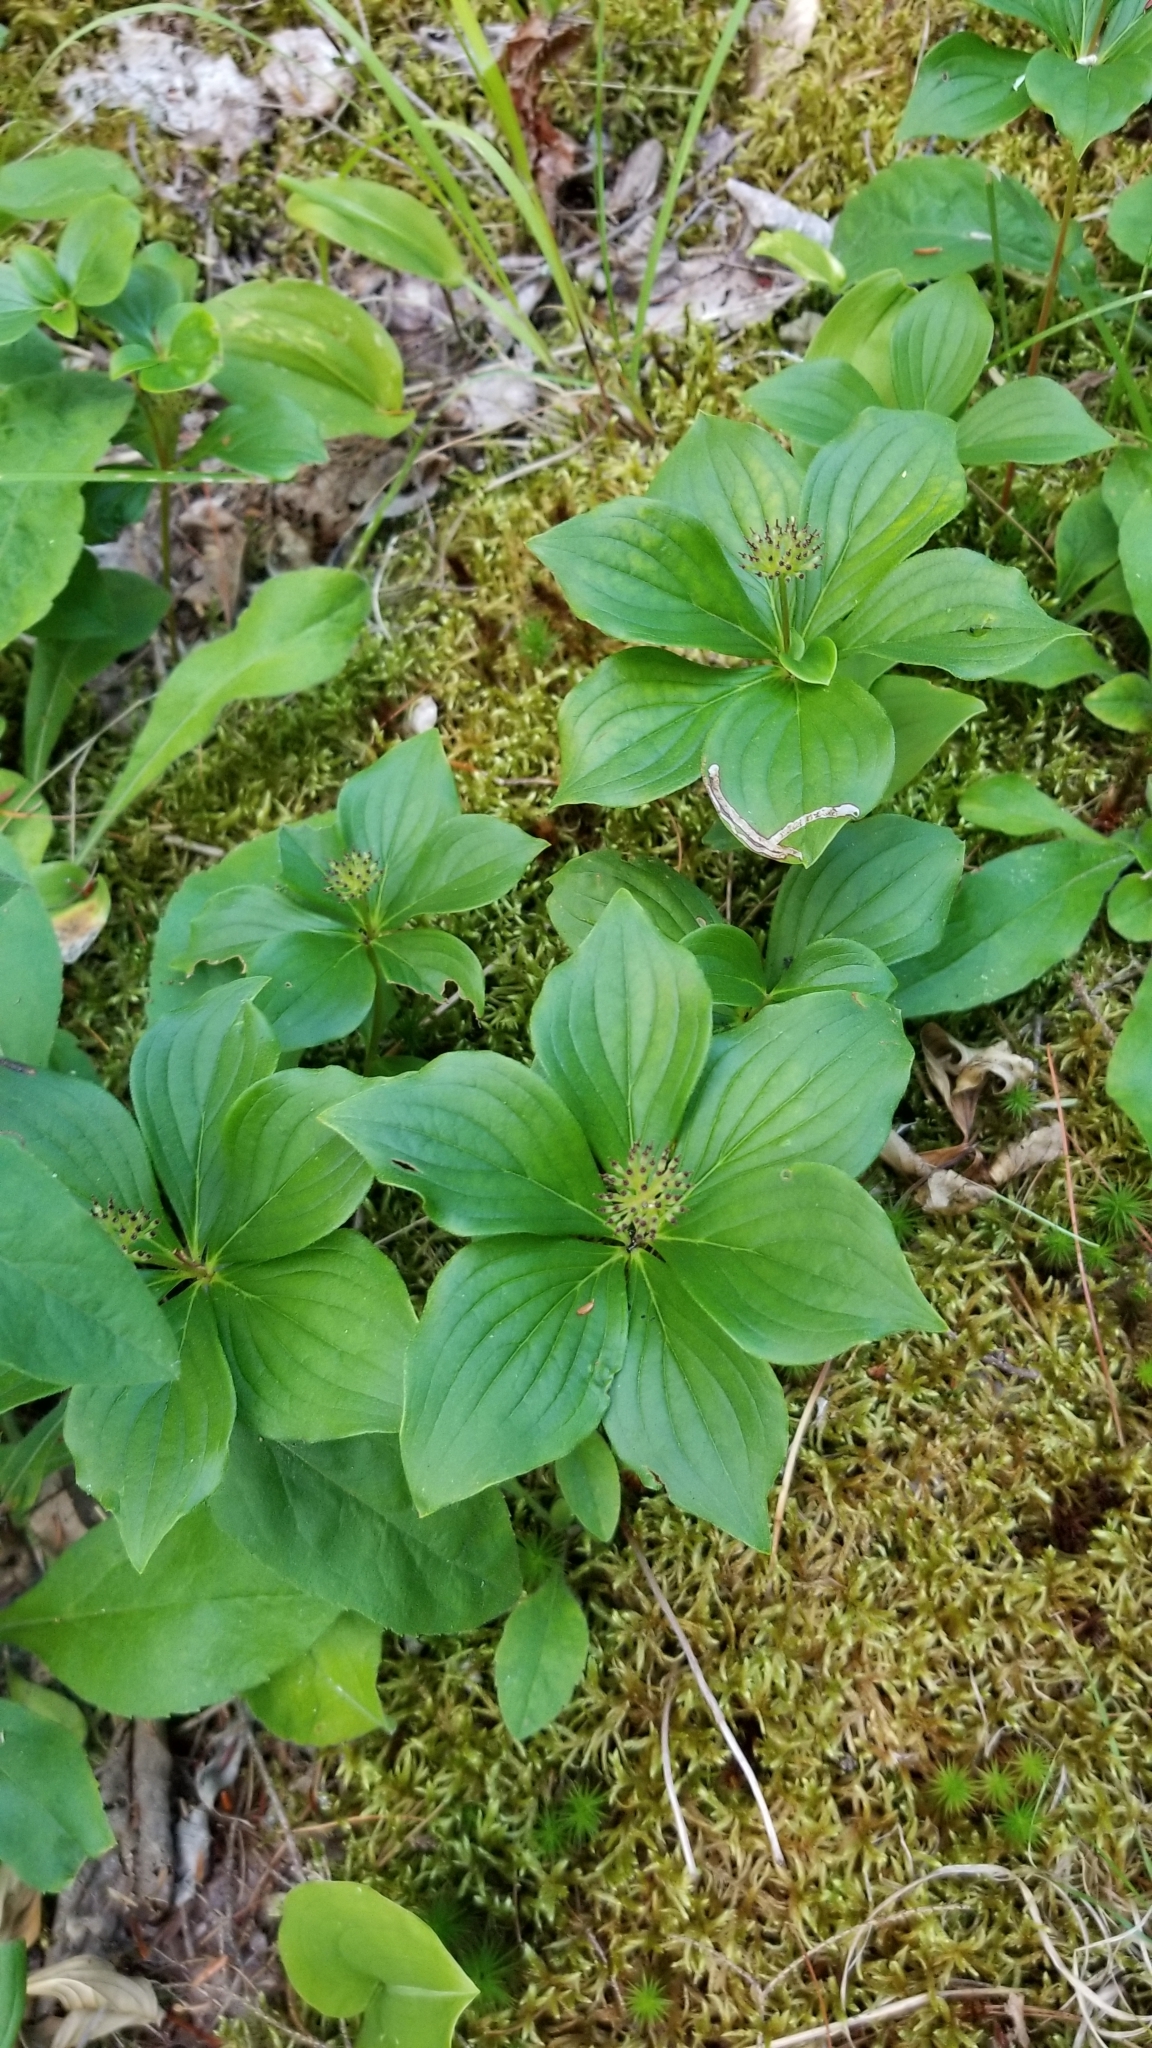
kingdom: Plantae
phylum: Tracheophyta
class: Magnoliopsida
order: Cornales
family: Cornaceae
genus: Cornus
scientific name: Cornus canadensis
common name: Creeping dogwood
